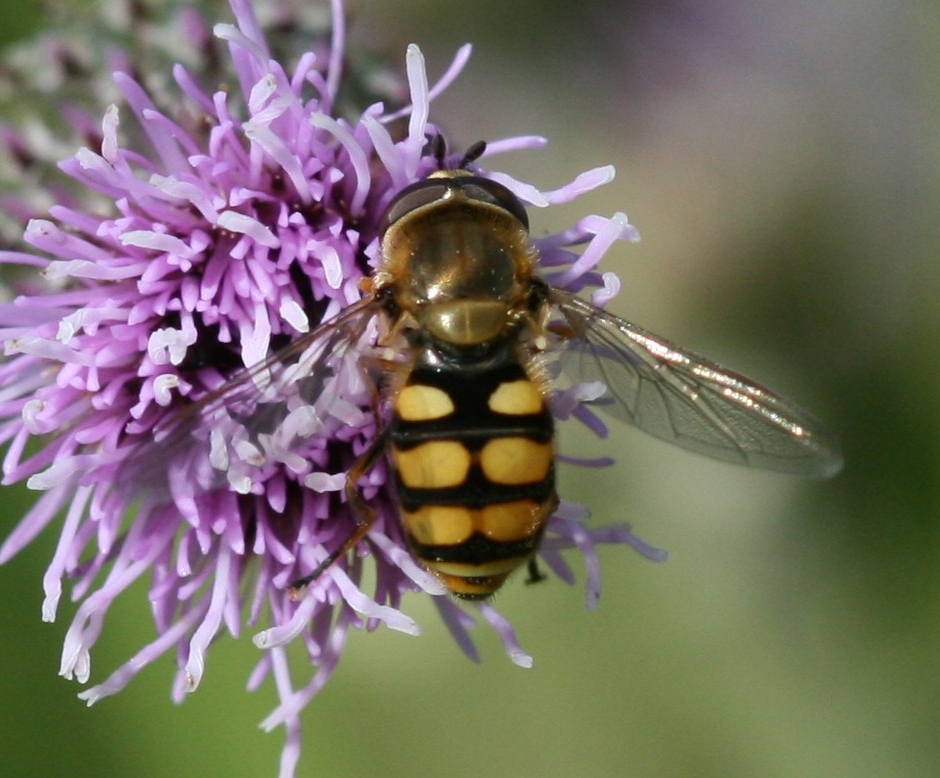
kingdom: Animalia
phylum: Arthropoda
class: Insecta
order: Diptera
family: Syrphidae
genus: Eupeodes
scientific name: Eupeodes corollae
